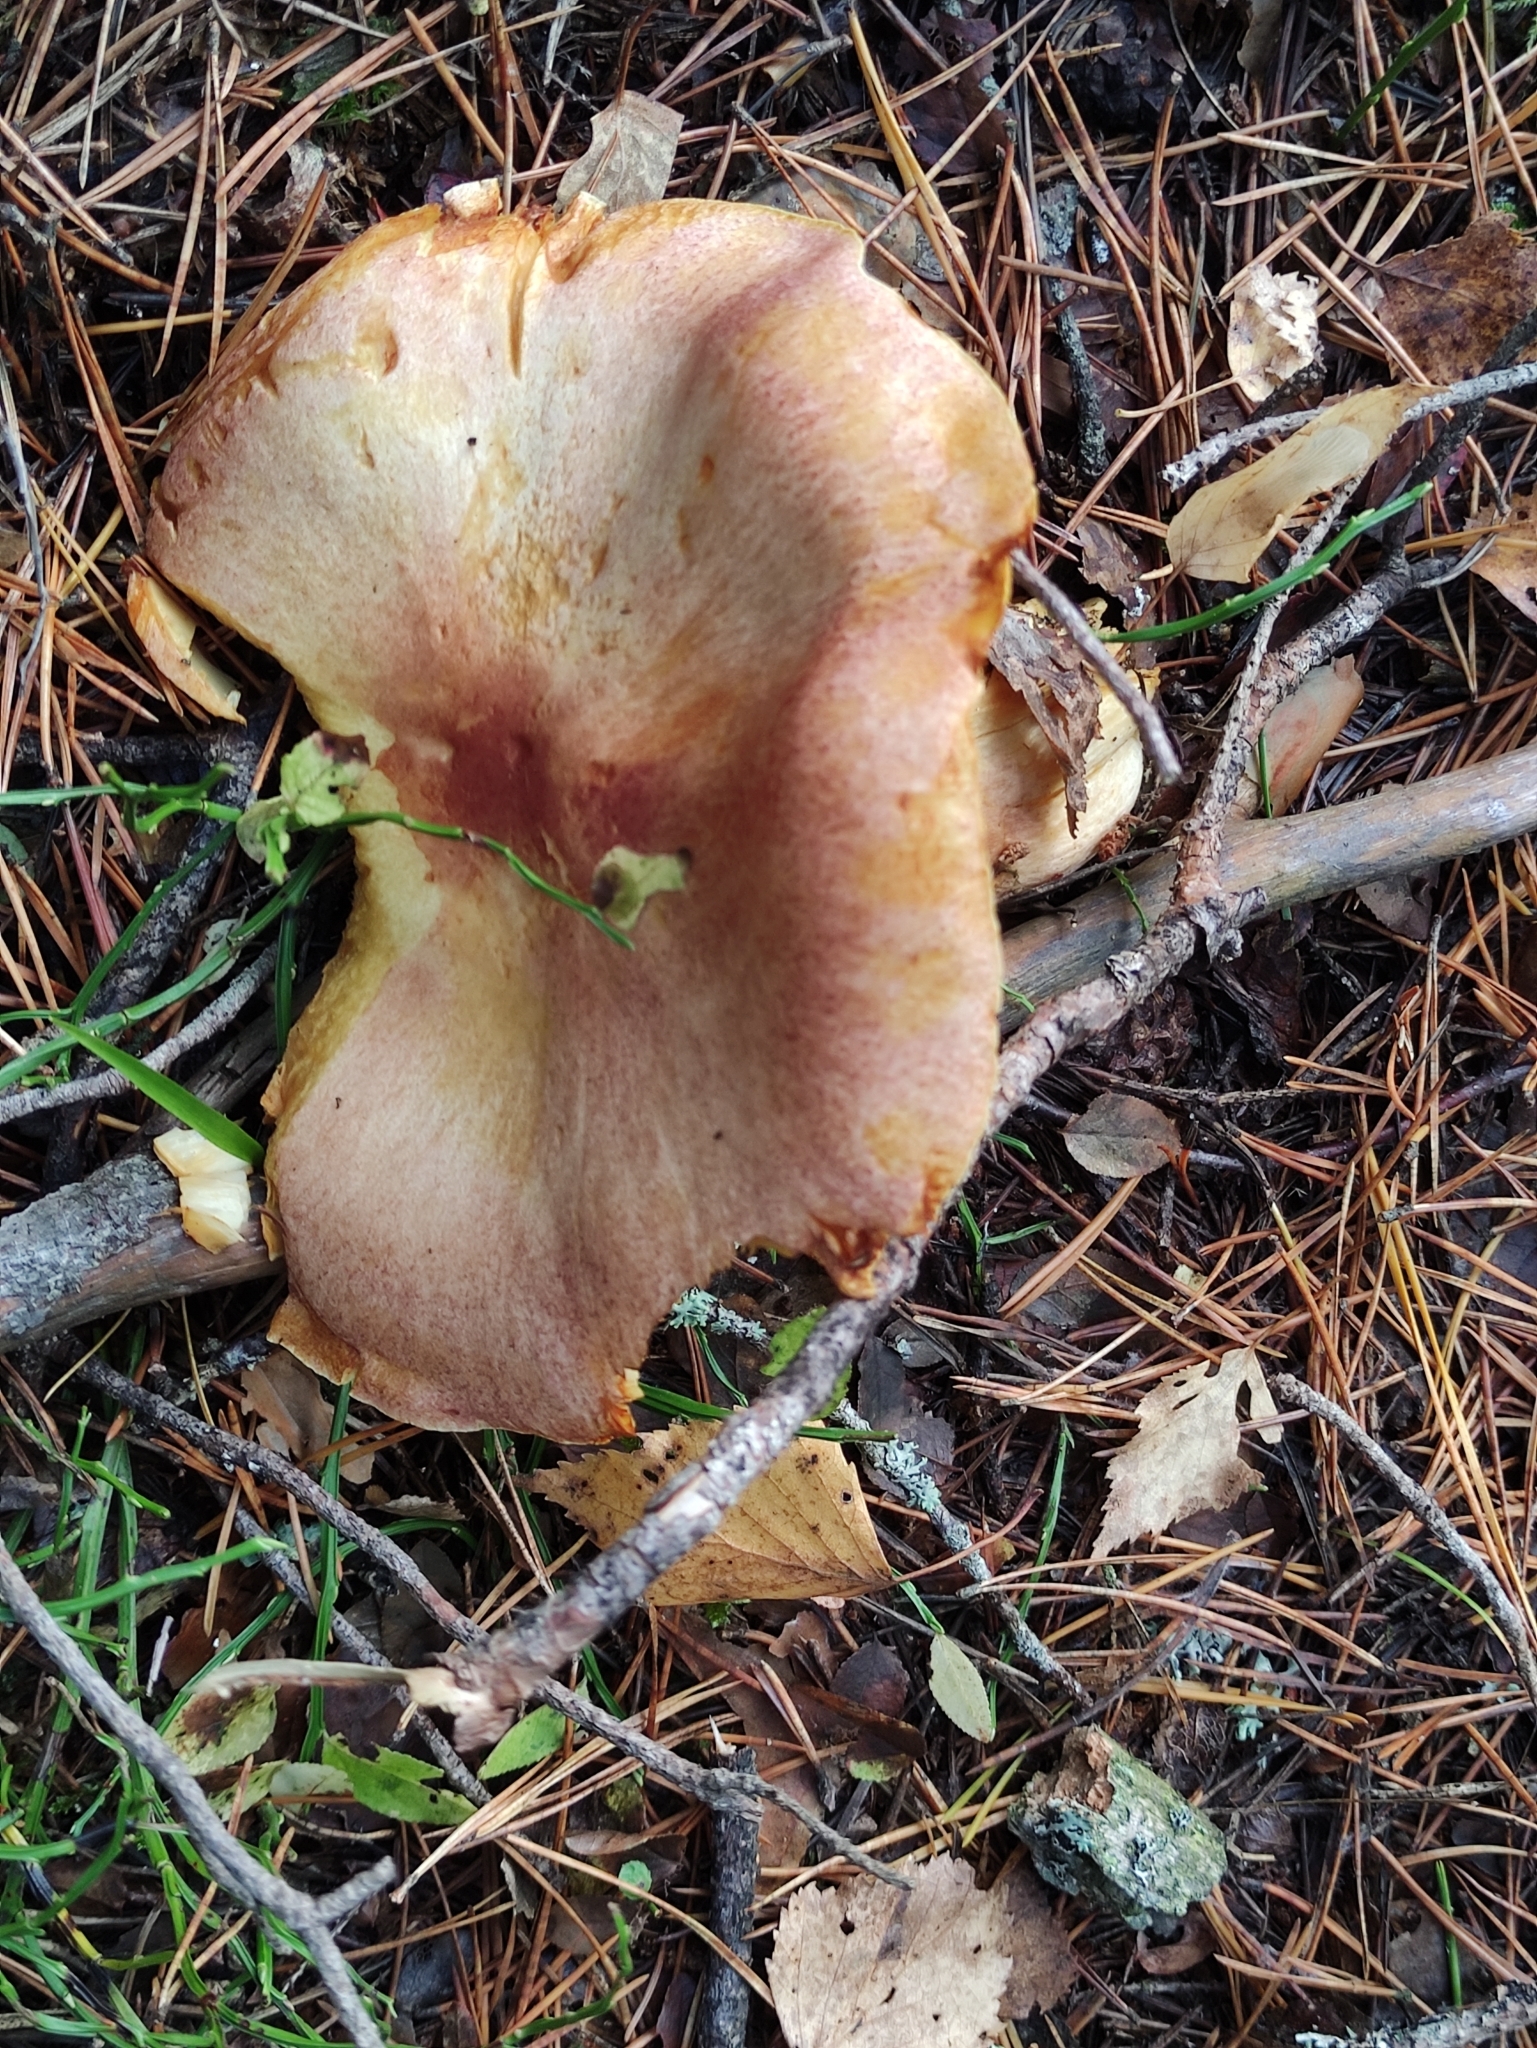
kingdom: Fungi
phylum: Basidiomycota
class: Agaricomycetes
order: Agaricales
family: Tricholomataceae
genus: Tricholomopsis
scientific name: Tricholomopsis rutilans
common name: Plums and custard
